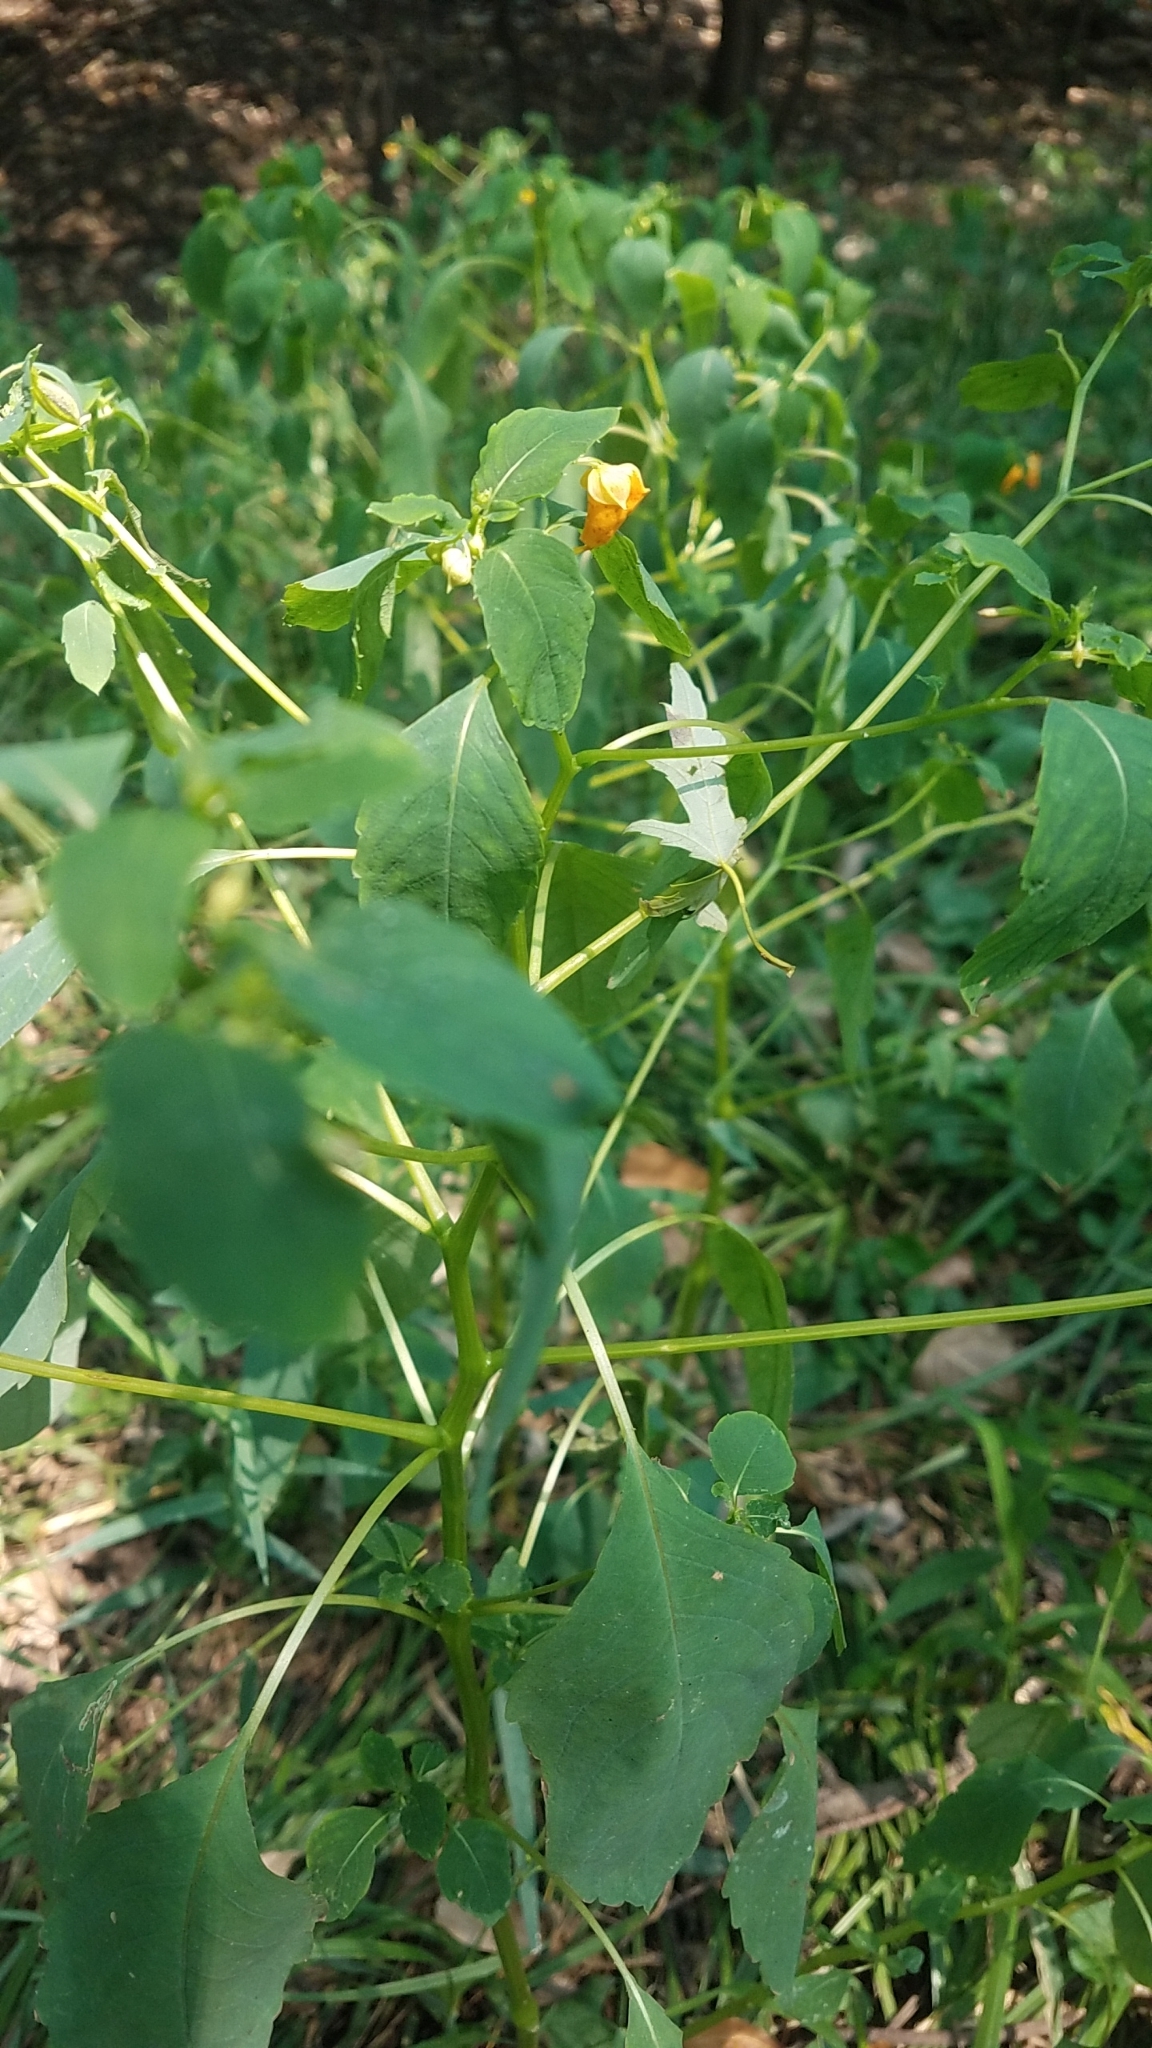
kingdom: Plantae
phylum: Tracheophyta
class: Magnoliopsida
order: Ericales
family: Balsaminaceae
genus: Impatiens
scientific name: Impatiens capensis
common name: Orange balsam
